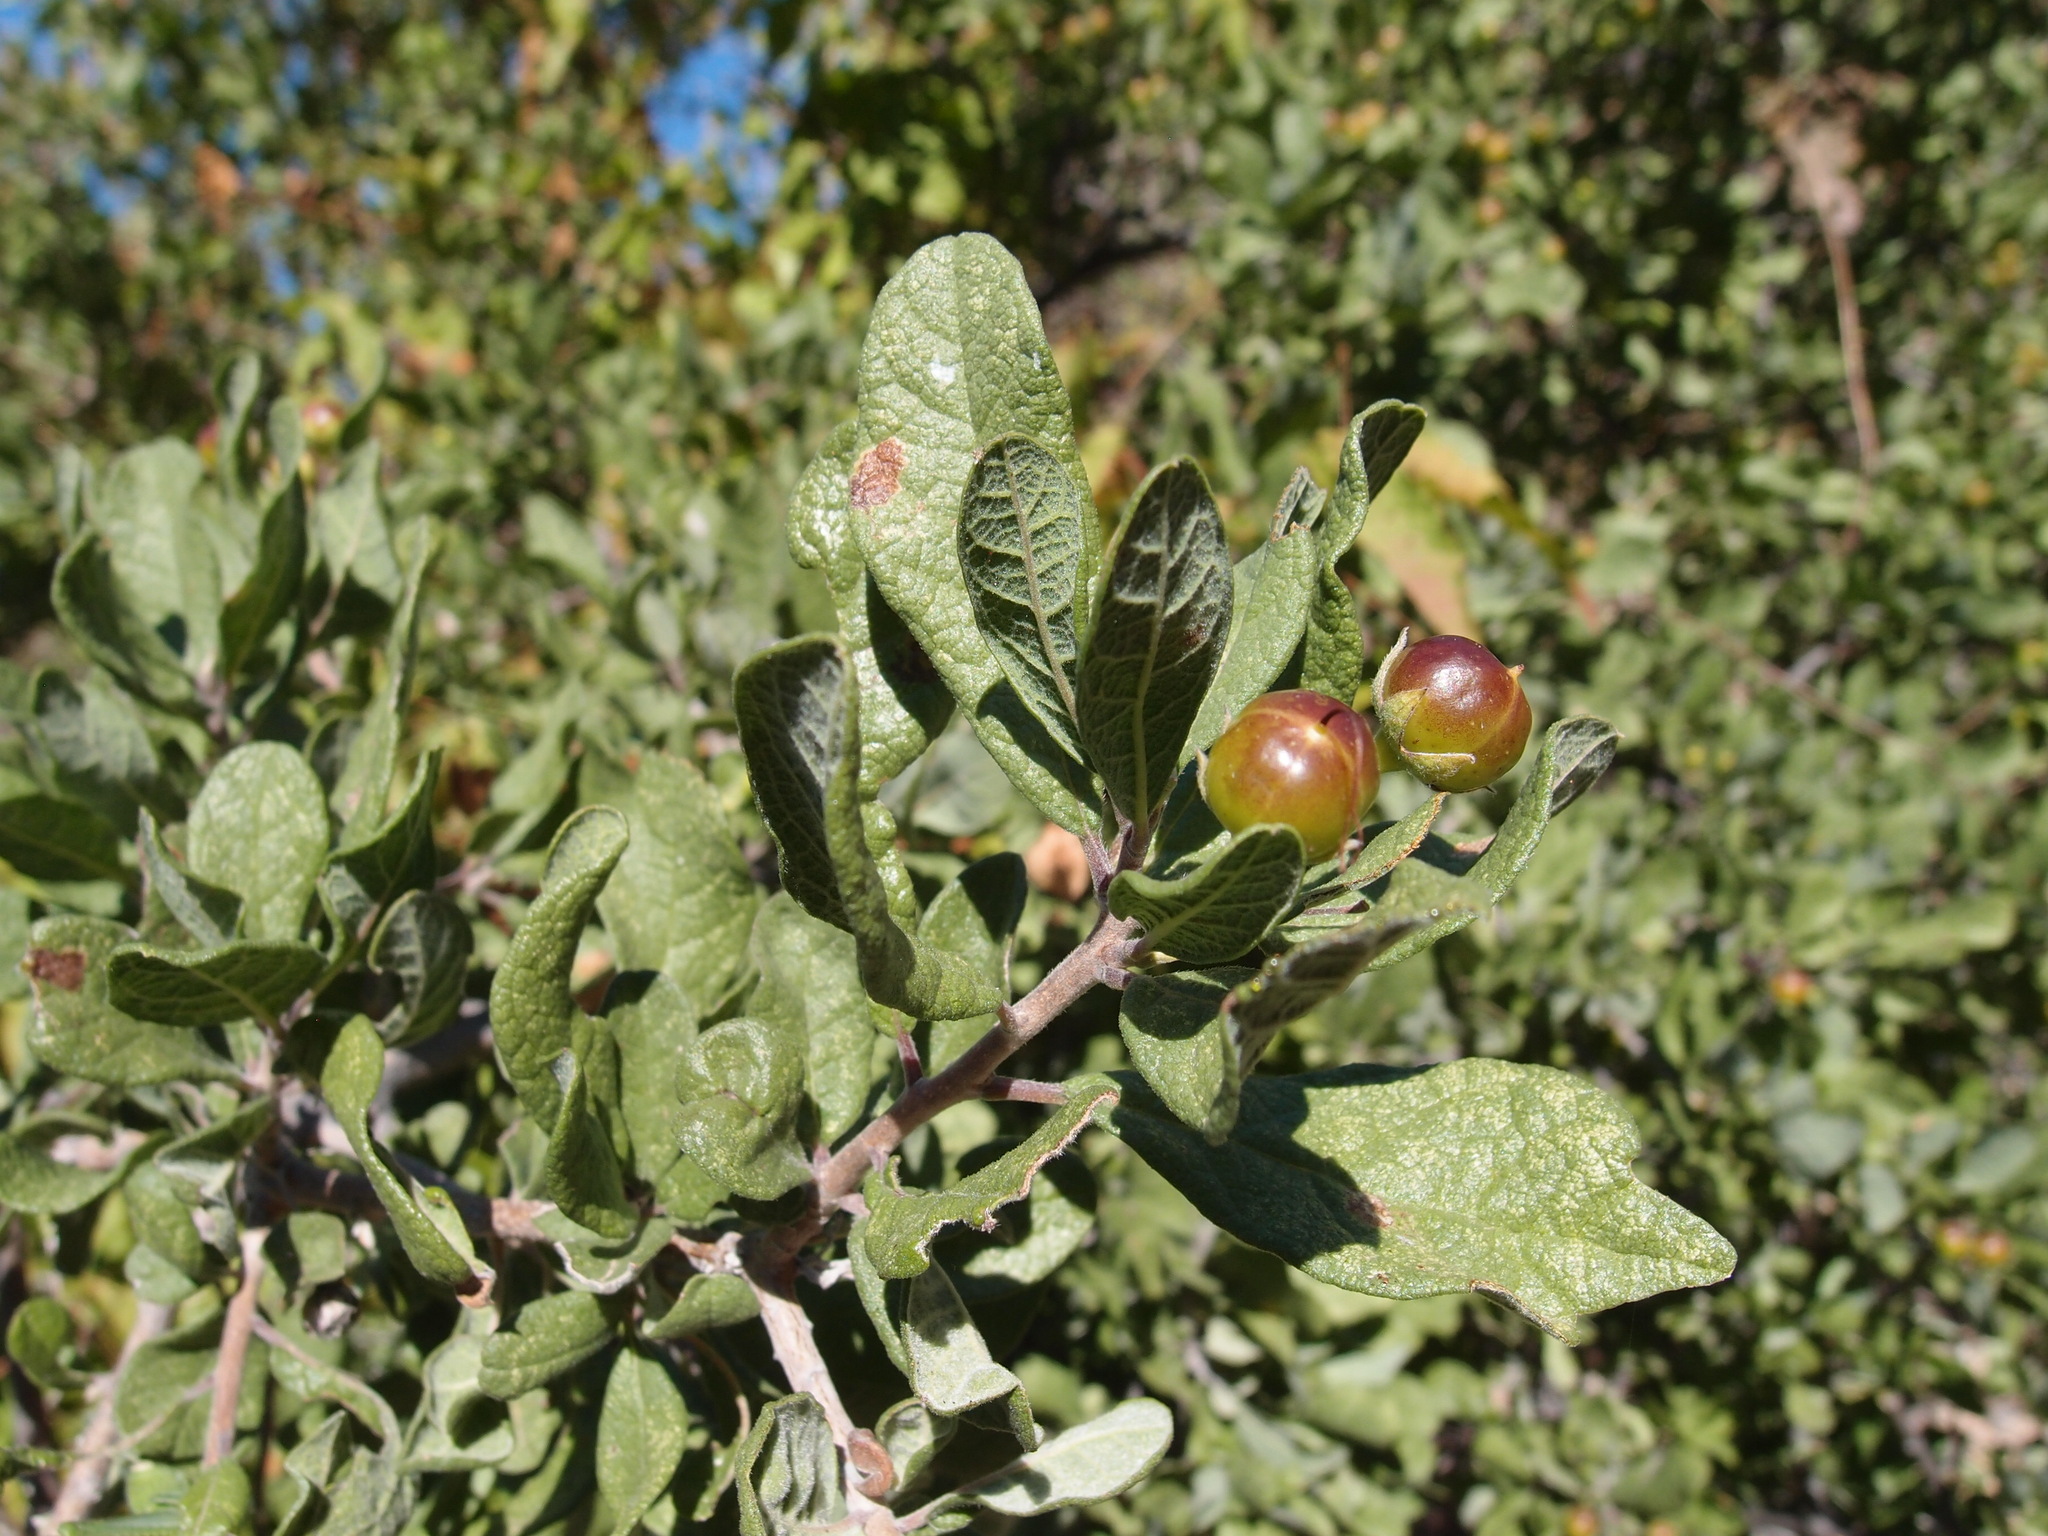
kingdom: Plantae
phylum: Tracheophyta
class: Magnoliopsida
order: Boraginales
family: Ehretiaceae
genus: Bourreria
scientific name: Bourreria sonorae
